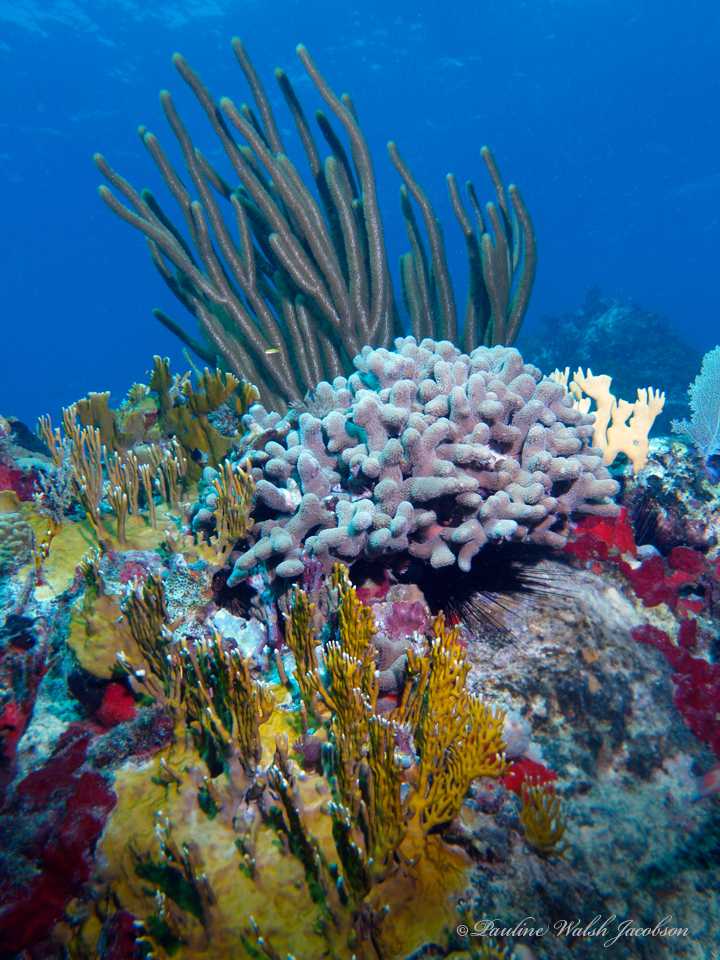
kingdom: Animalia
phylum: Cnidaria
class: Anthozoa
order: Scleractinia
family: Poritidae
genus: Porites
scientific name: Porites porites
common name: Finger coral
